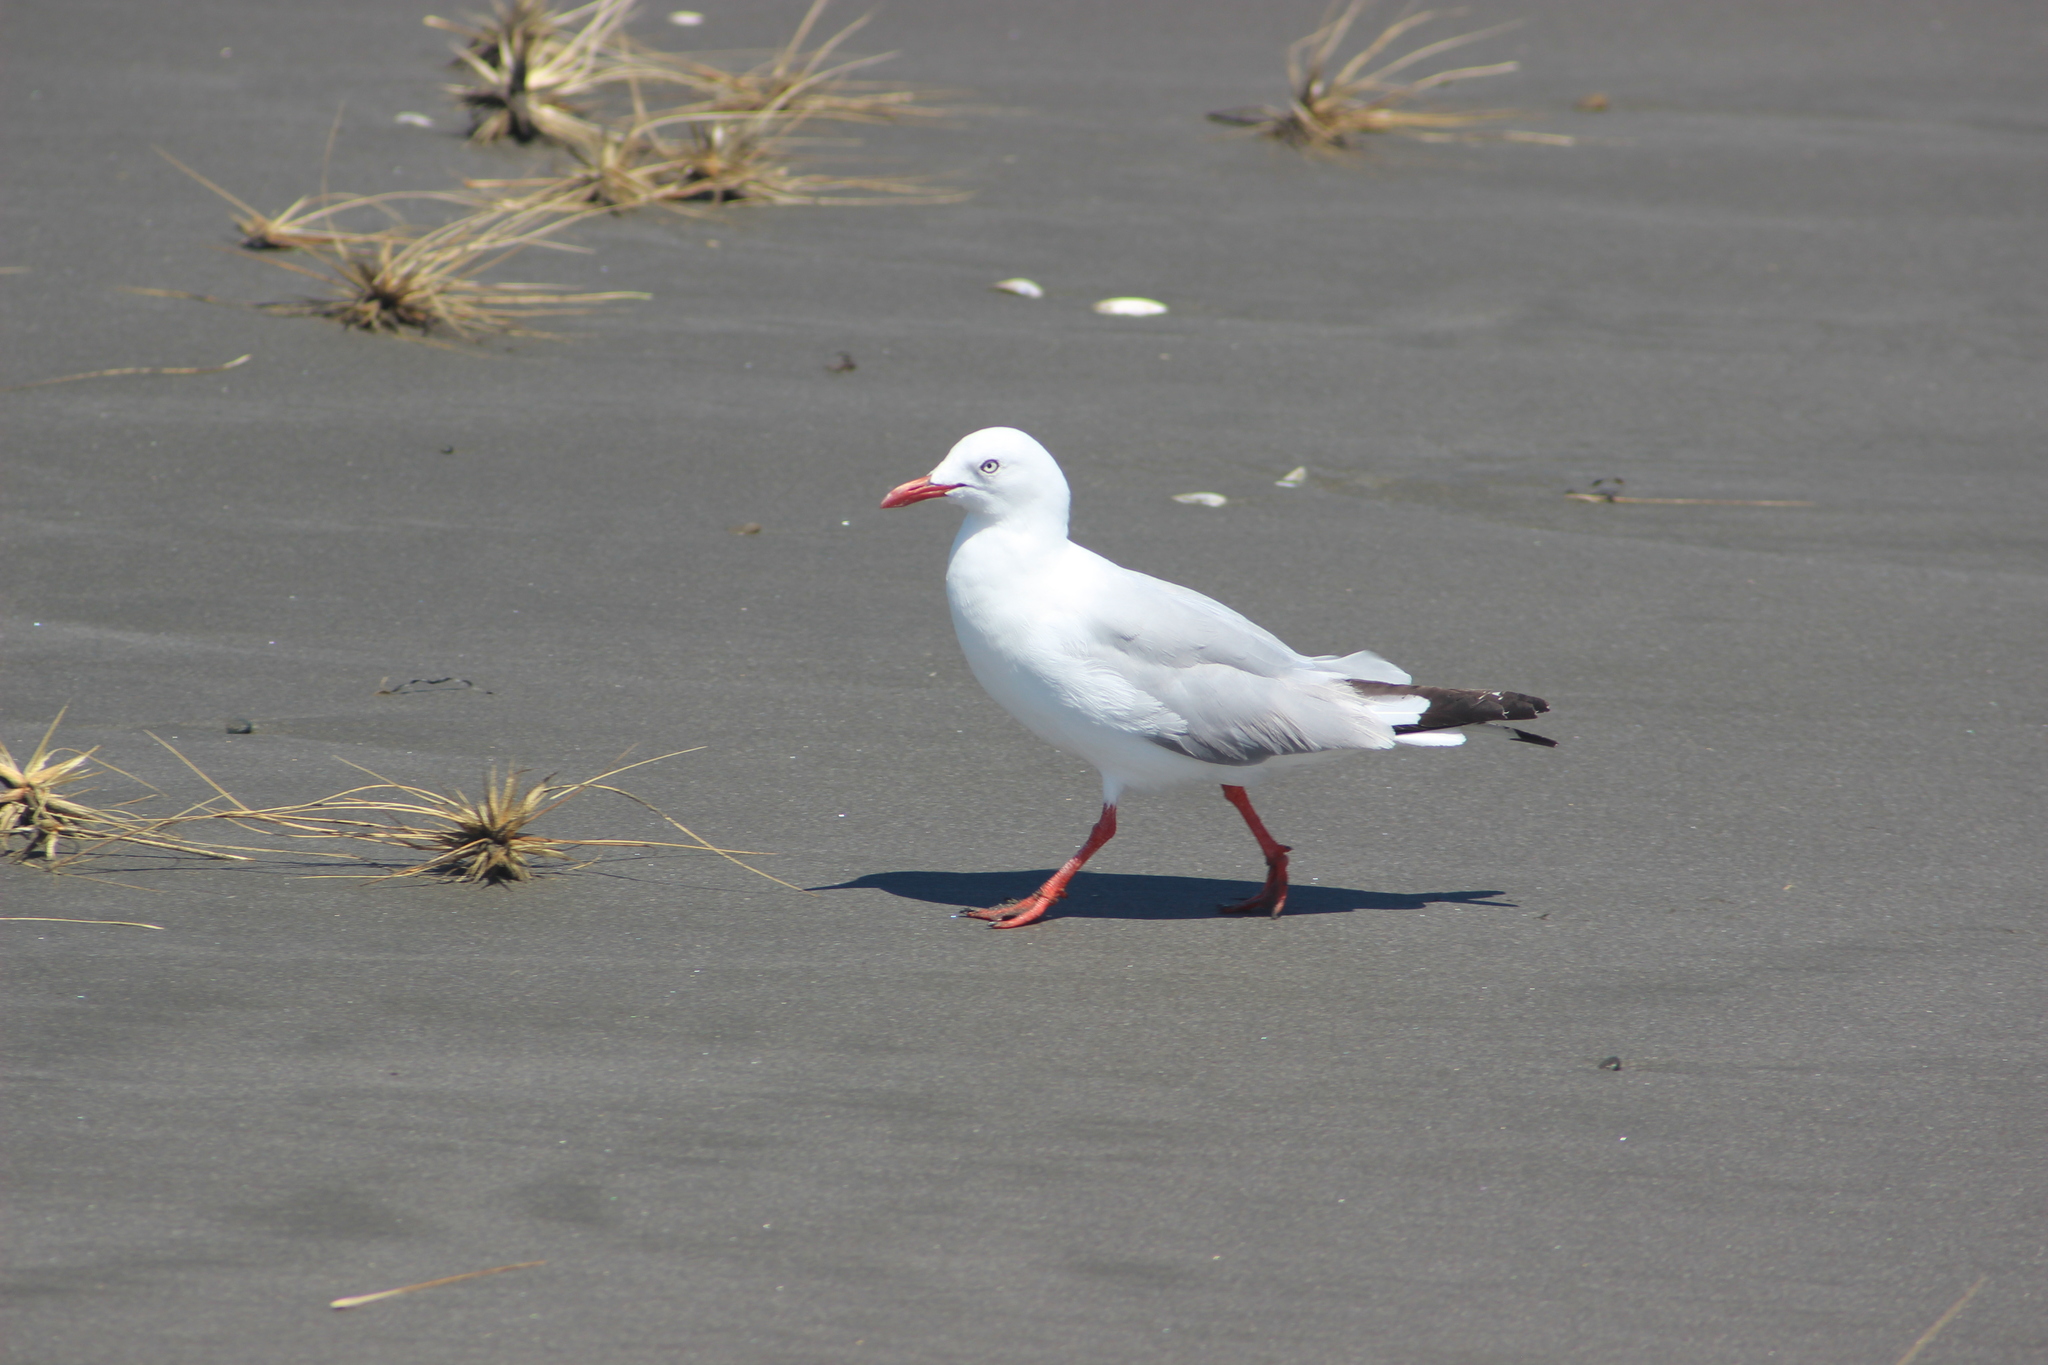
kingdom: Animalia
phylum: Chordata
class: Aves
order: Charadriiformes
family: Laridae
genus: Chroicocephalus
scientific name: Chroicocephalus novaehollandiae
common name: Silver gull
